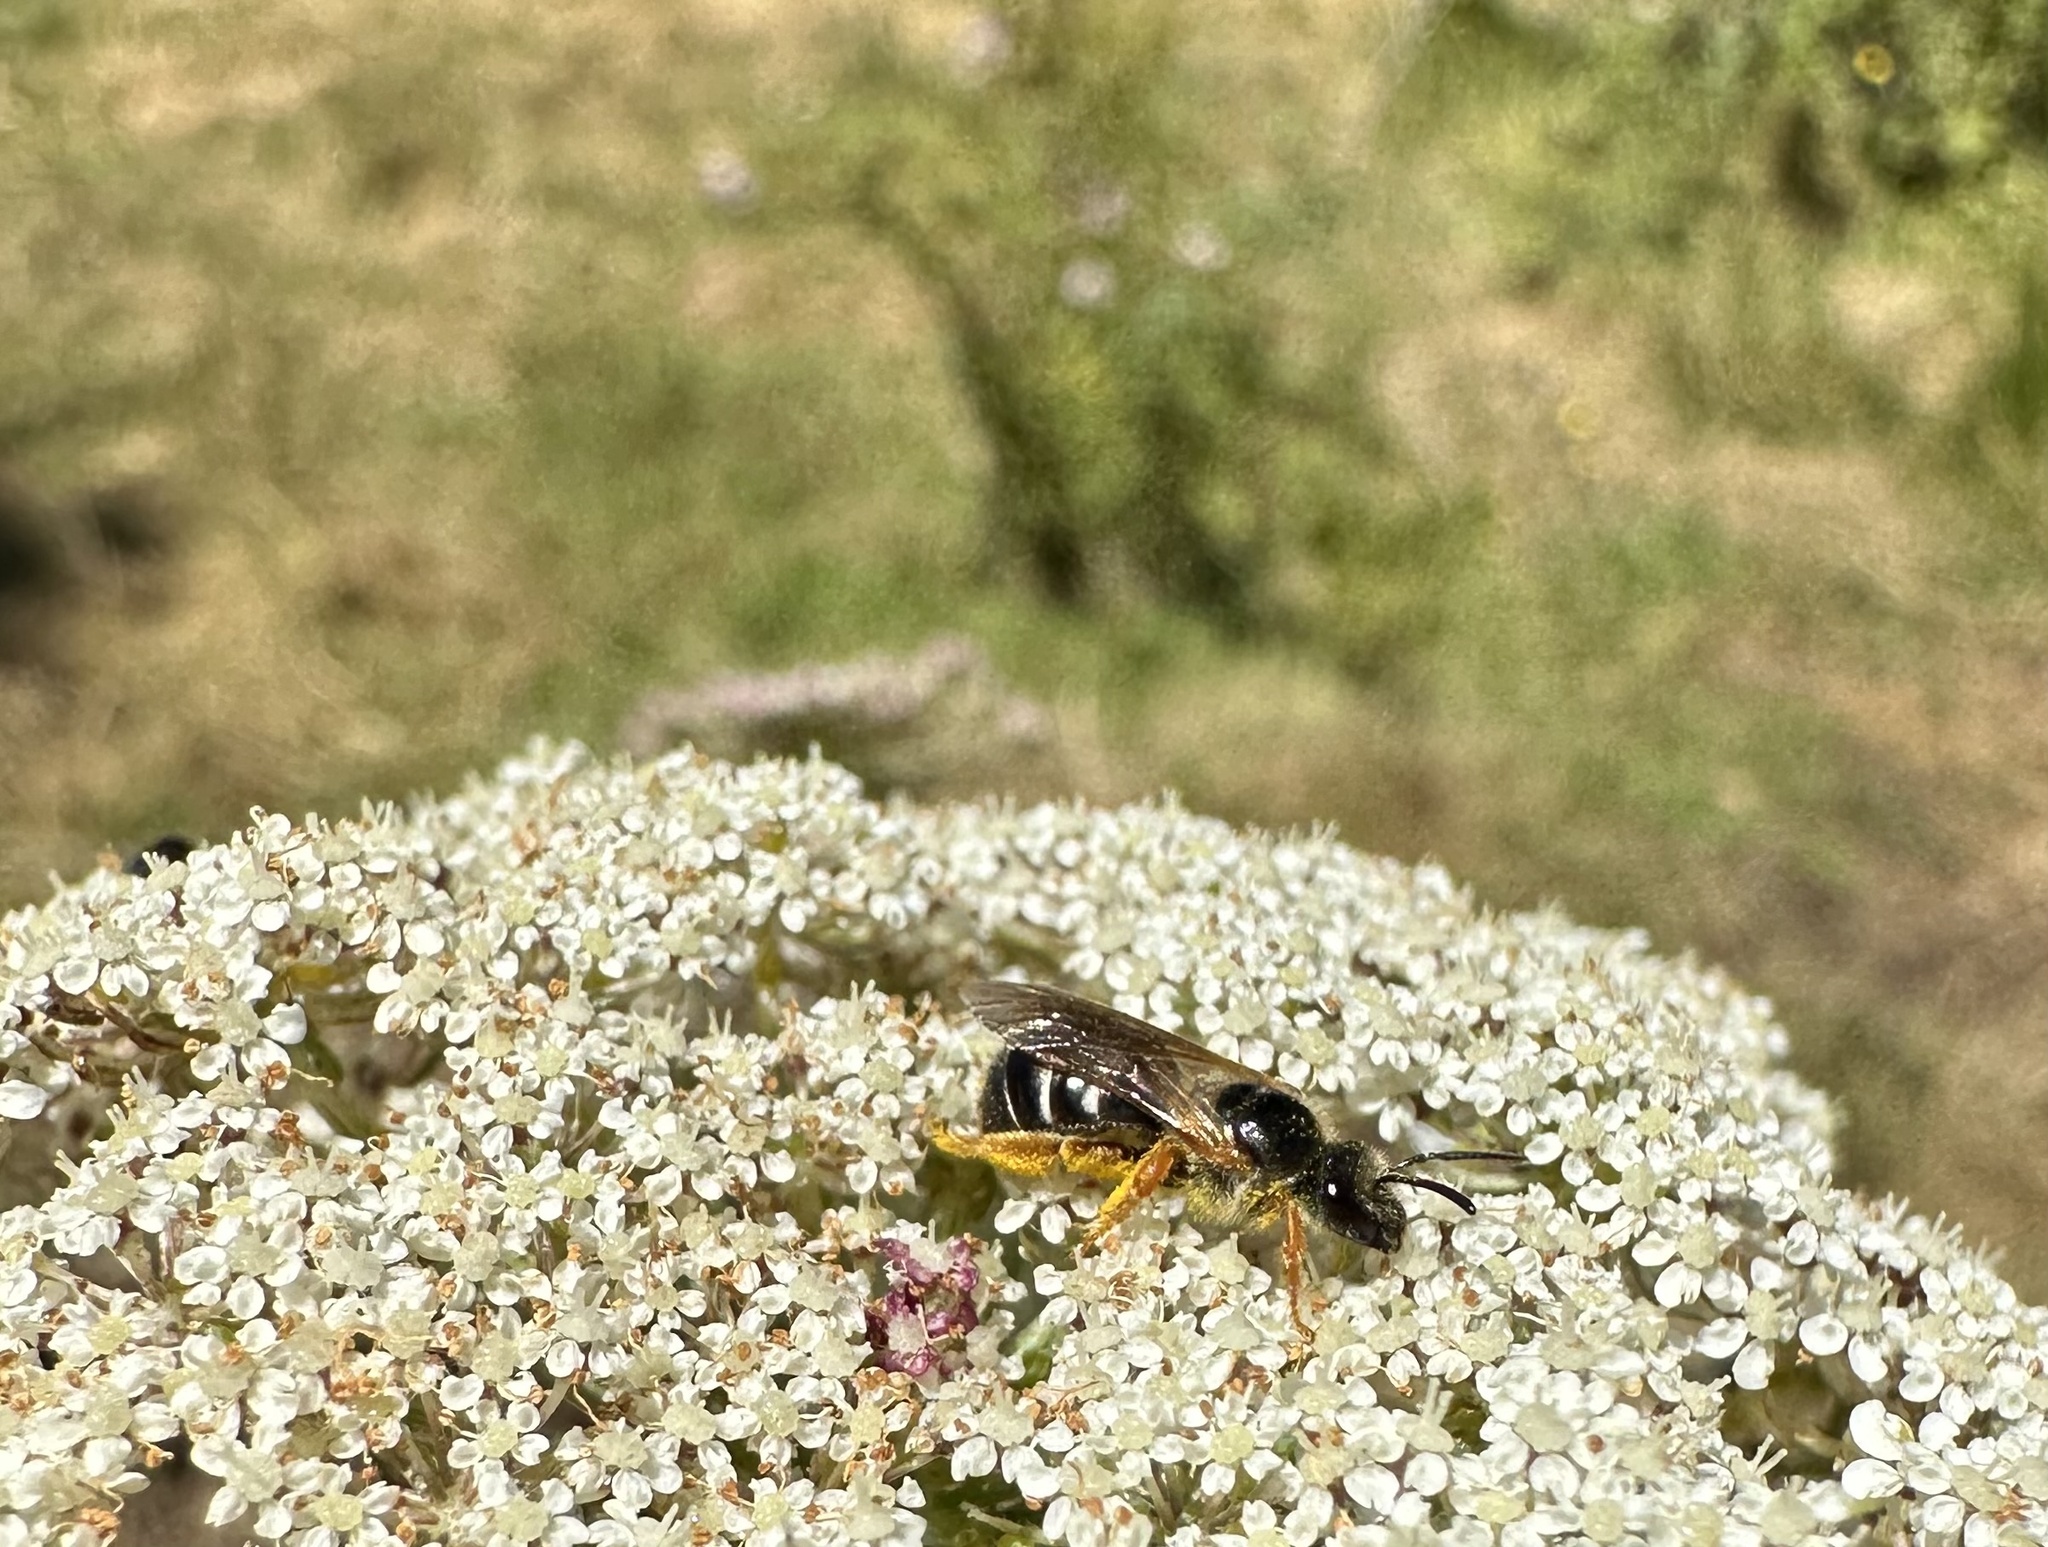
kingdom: Animalia
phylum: Arthropoda
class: Insecta
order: Hymenoptera
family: Halictidae
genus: Ruizantheda
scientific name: Ruizantheda proxima
